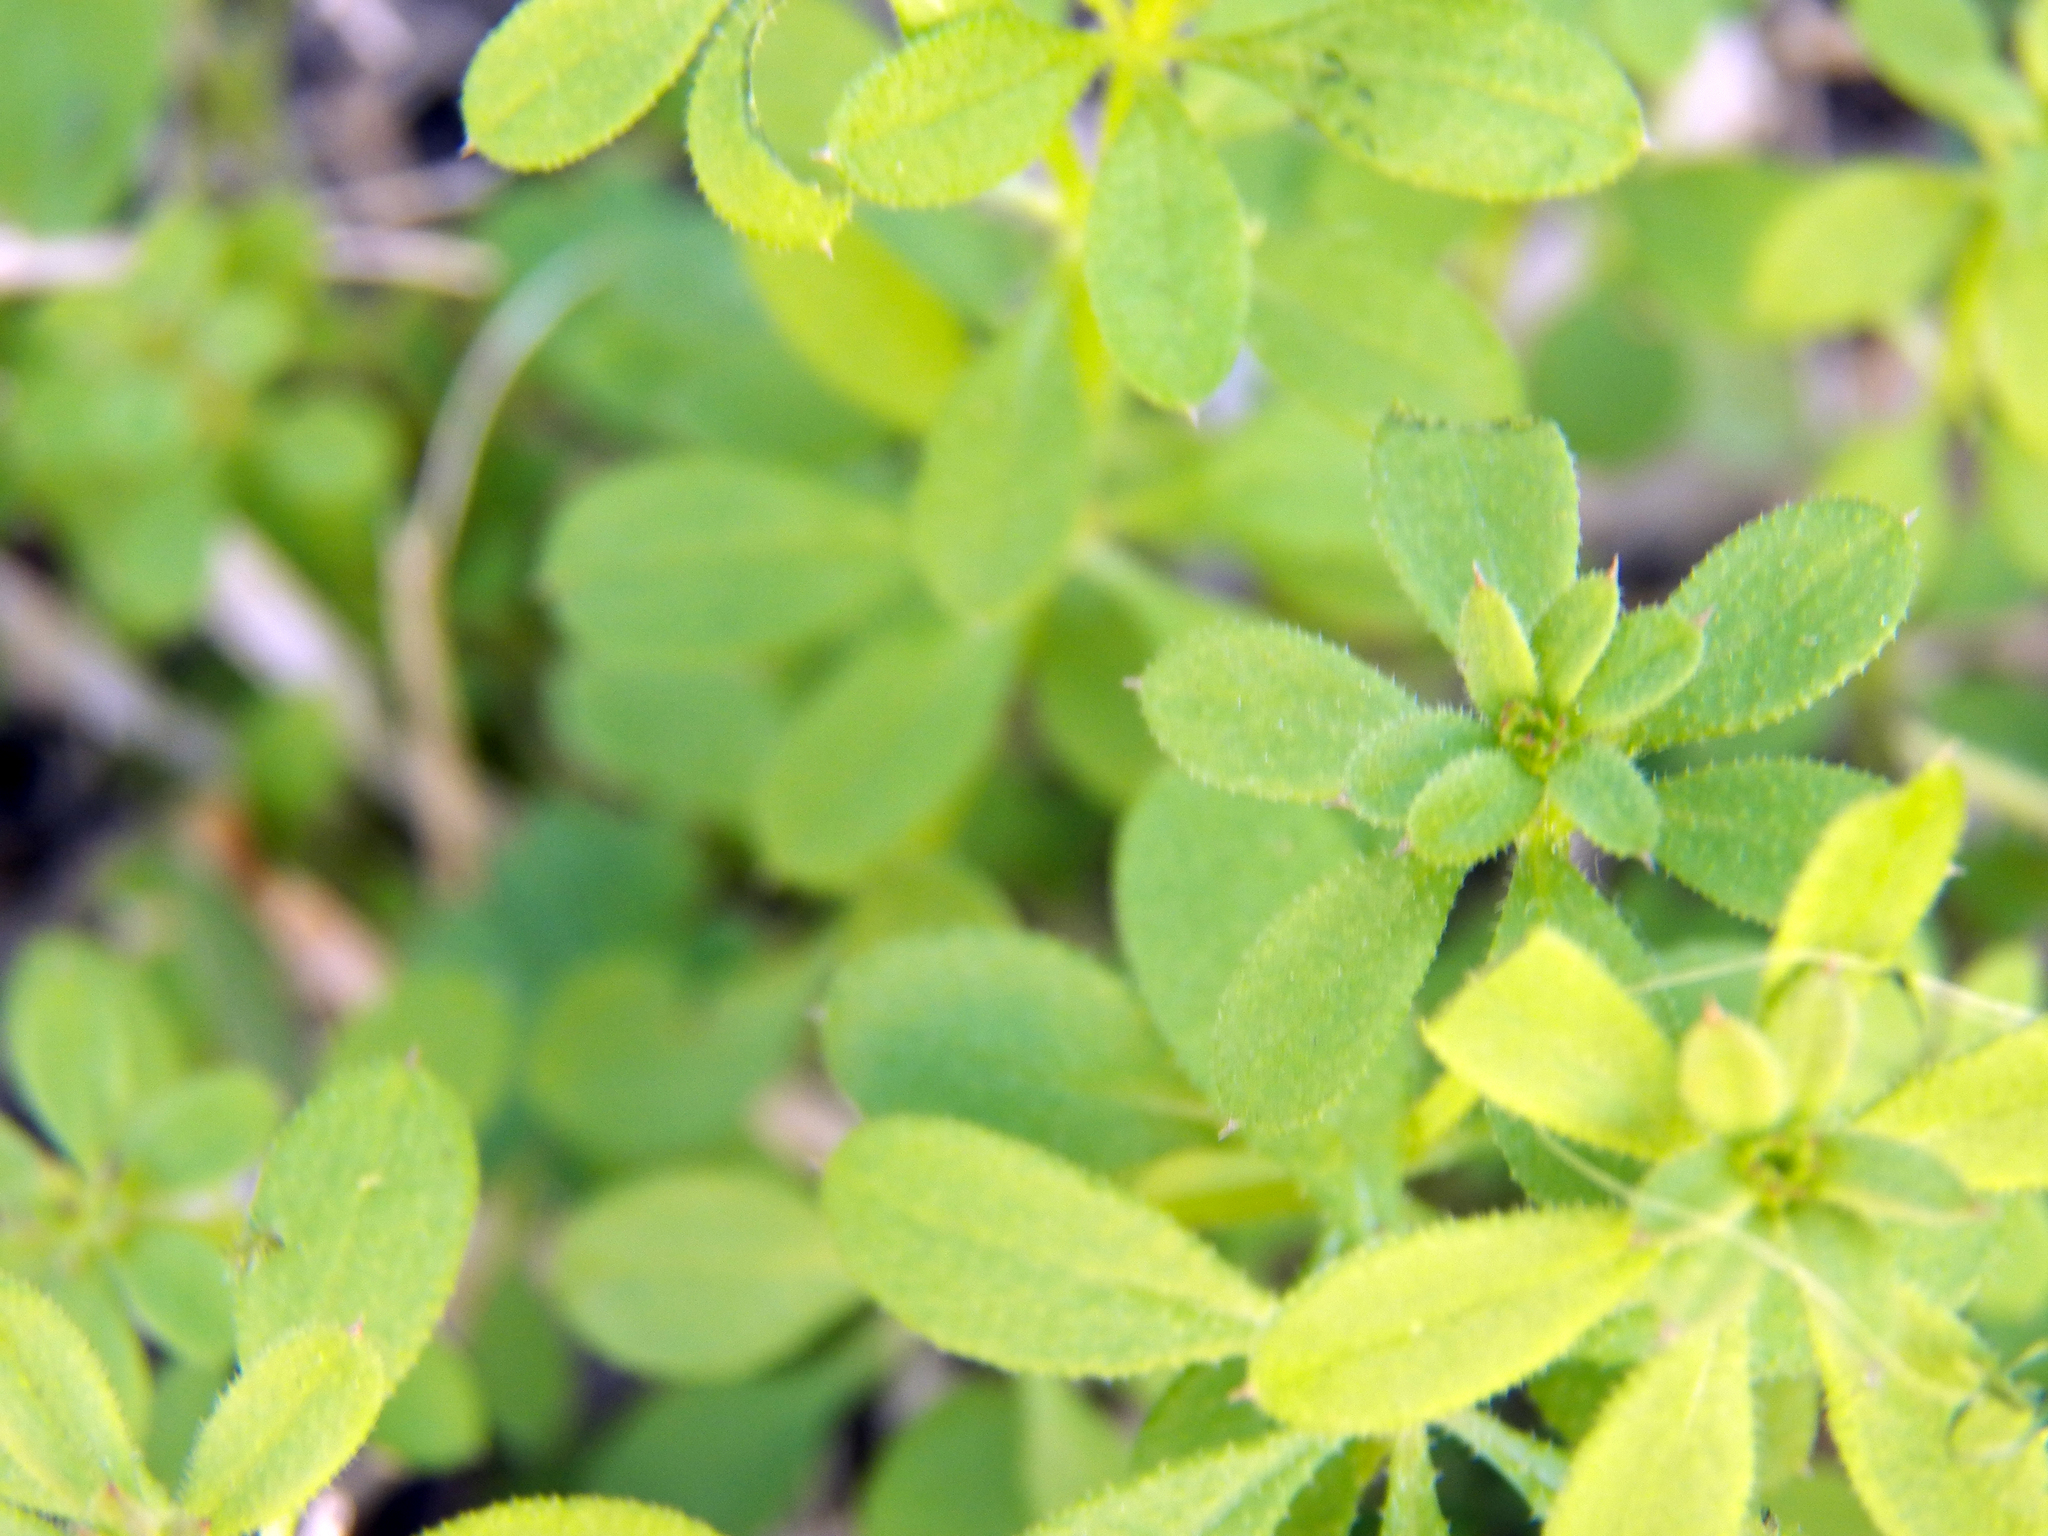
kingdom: Plantae
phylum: Tracheophyta
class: Magnoliopsida
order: Gentianales
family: Rubiaceae
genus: Galium
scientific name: Galium aparine
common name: Cleavers
